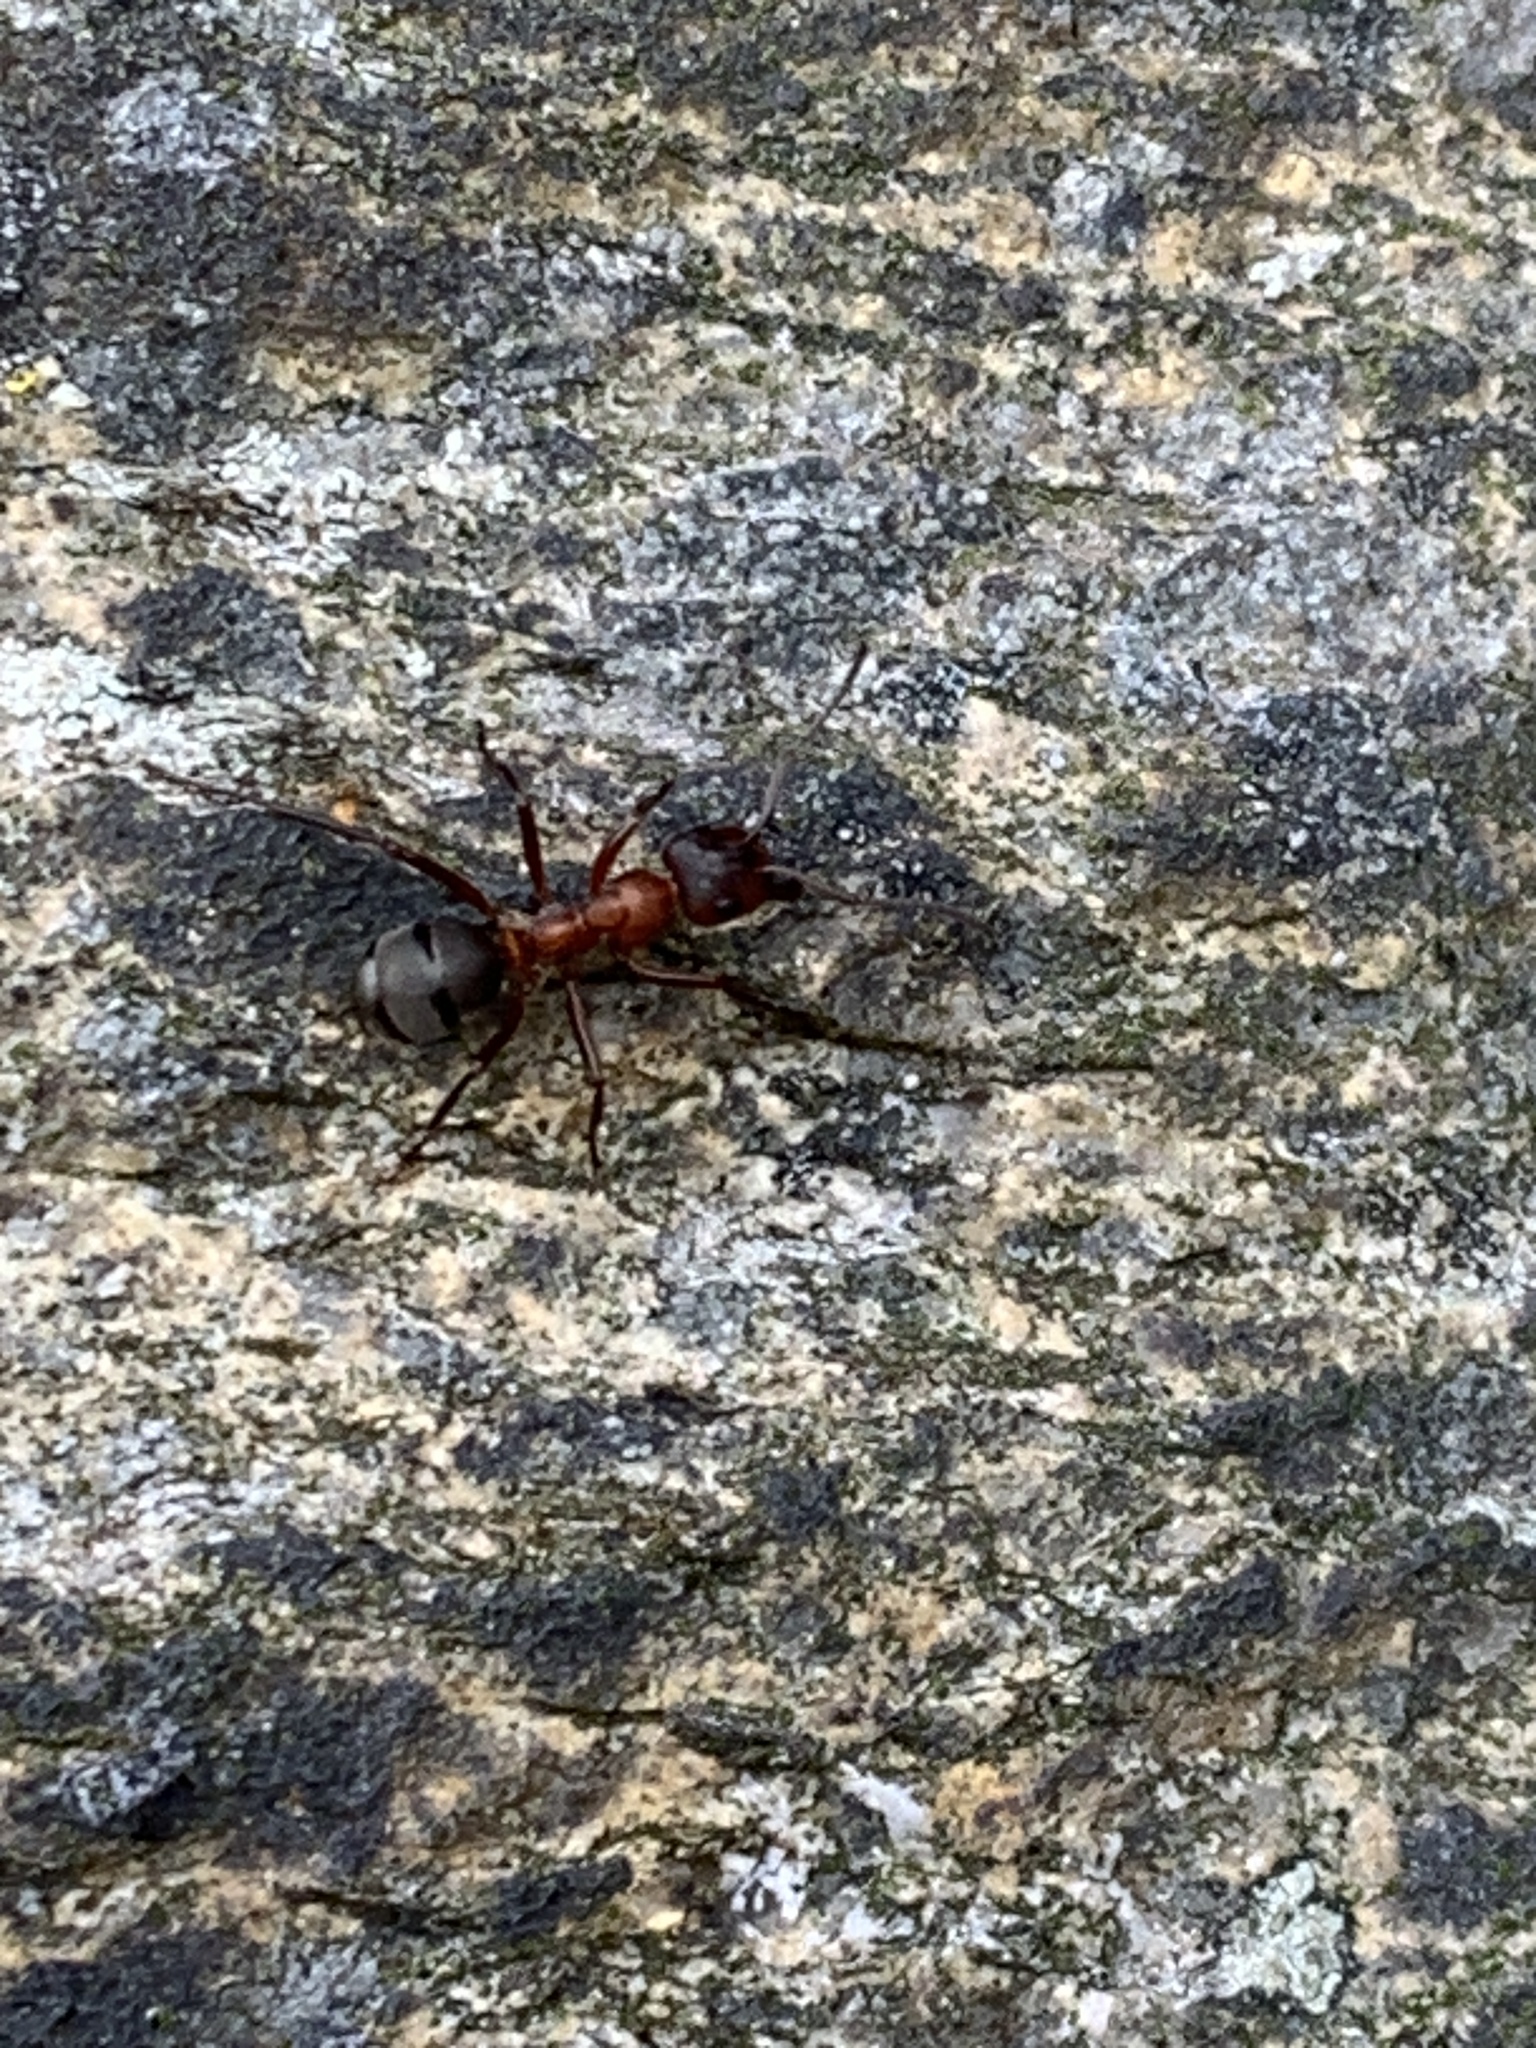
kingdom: Animalia
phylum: Arthropoda
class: Insecta
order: Hymenoptera
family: Formicidae
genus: Formica
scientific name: Formica sanguinea
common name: Blood-red ant
